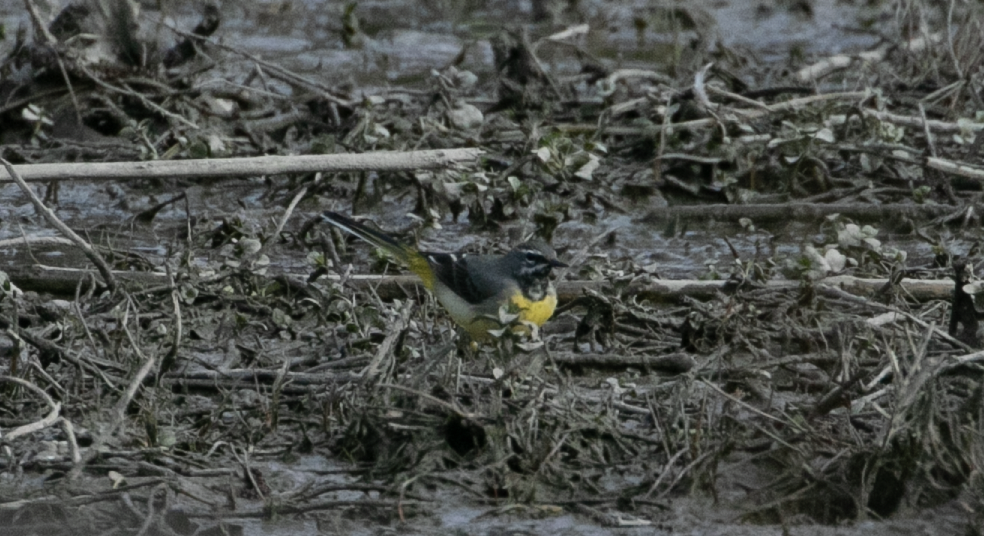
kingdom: Animalia
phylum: Chordata
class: Aves
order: Passeriformes
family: Motacillidae
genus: Motacilla
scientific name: Motacilla cinerea
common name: Grey wagtail
